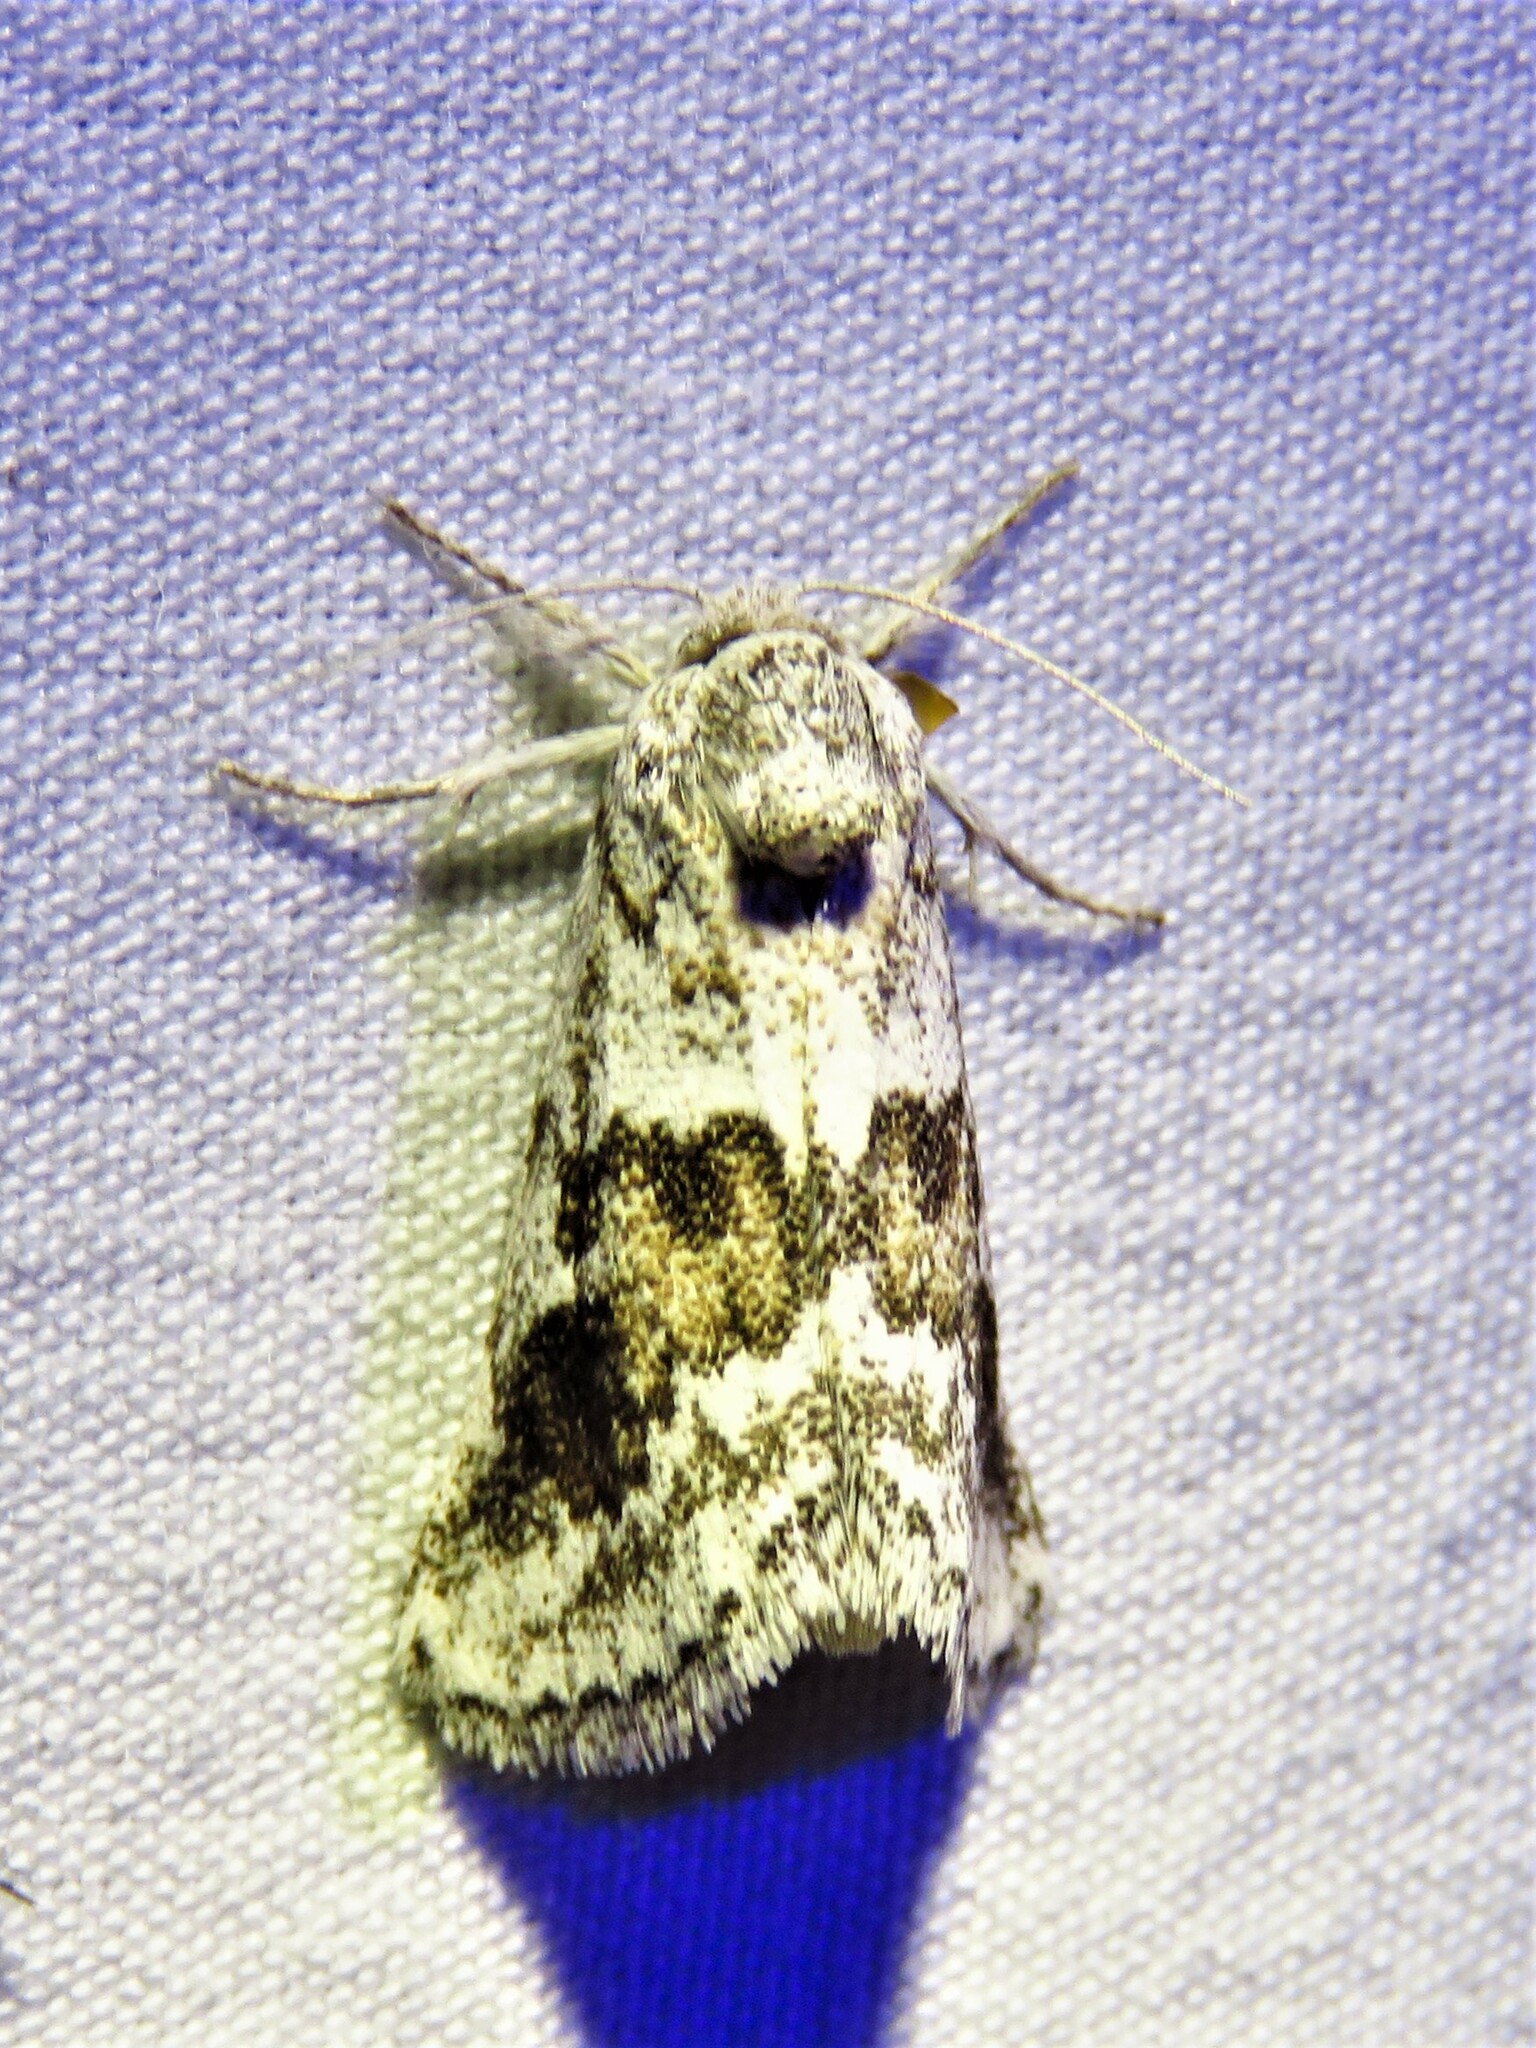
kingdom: Animalia
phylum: Arthropoda
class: Insecta
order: Lepidoptera
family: Noctuidae
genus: Acopa
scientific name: Acopa carina
